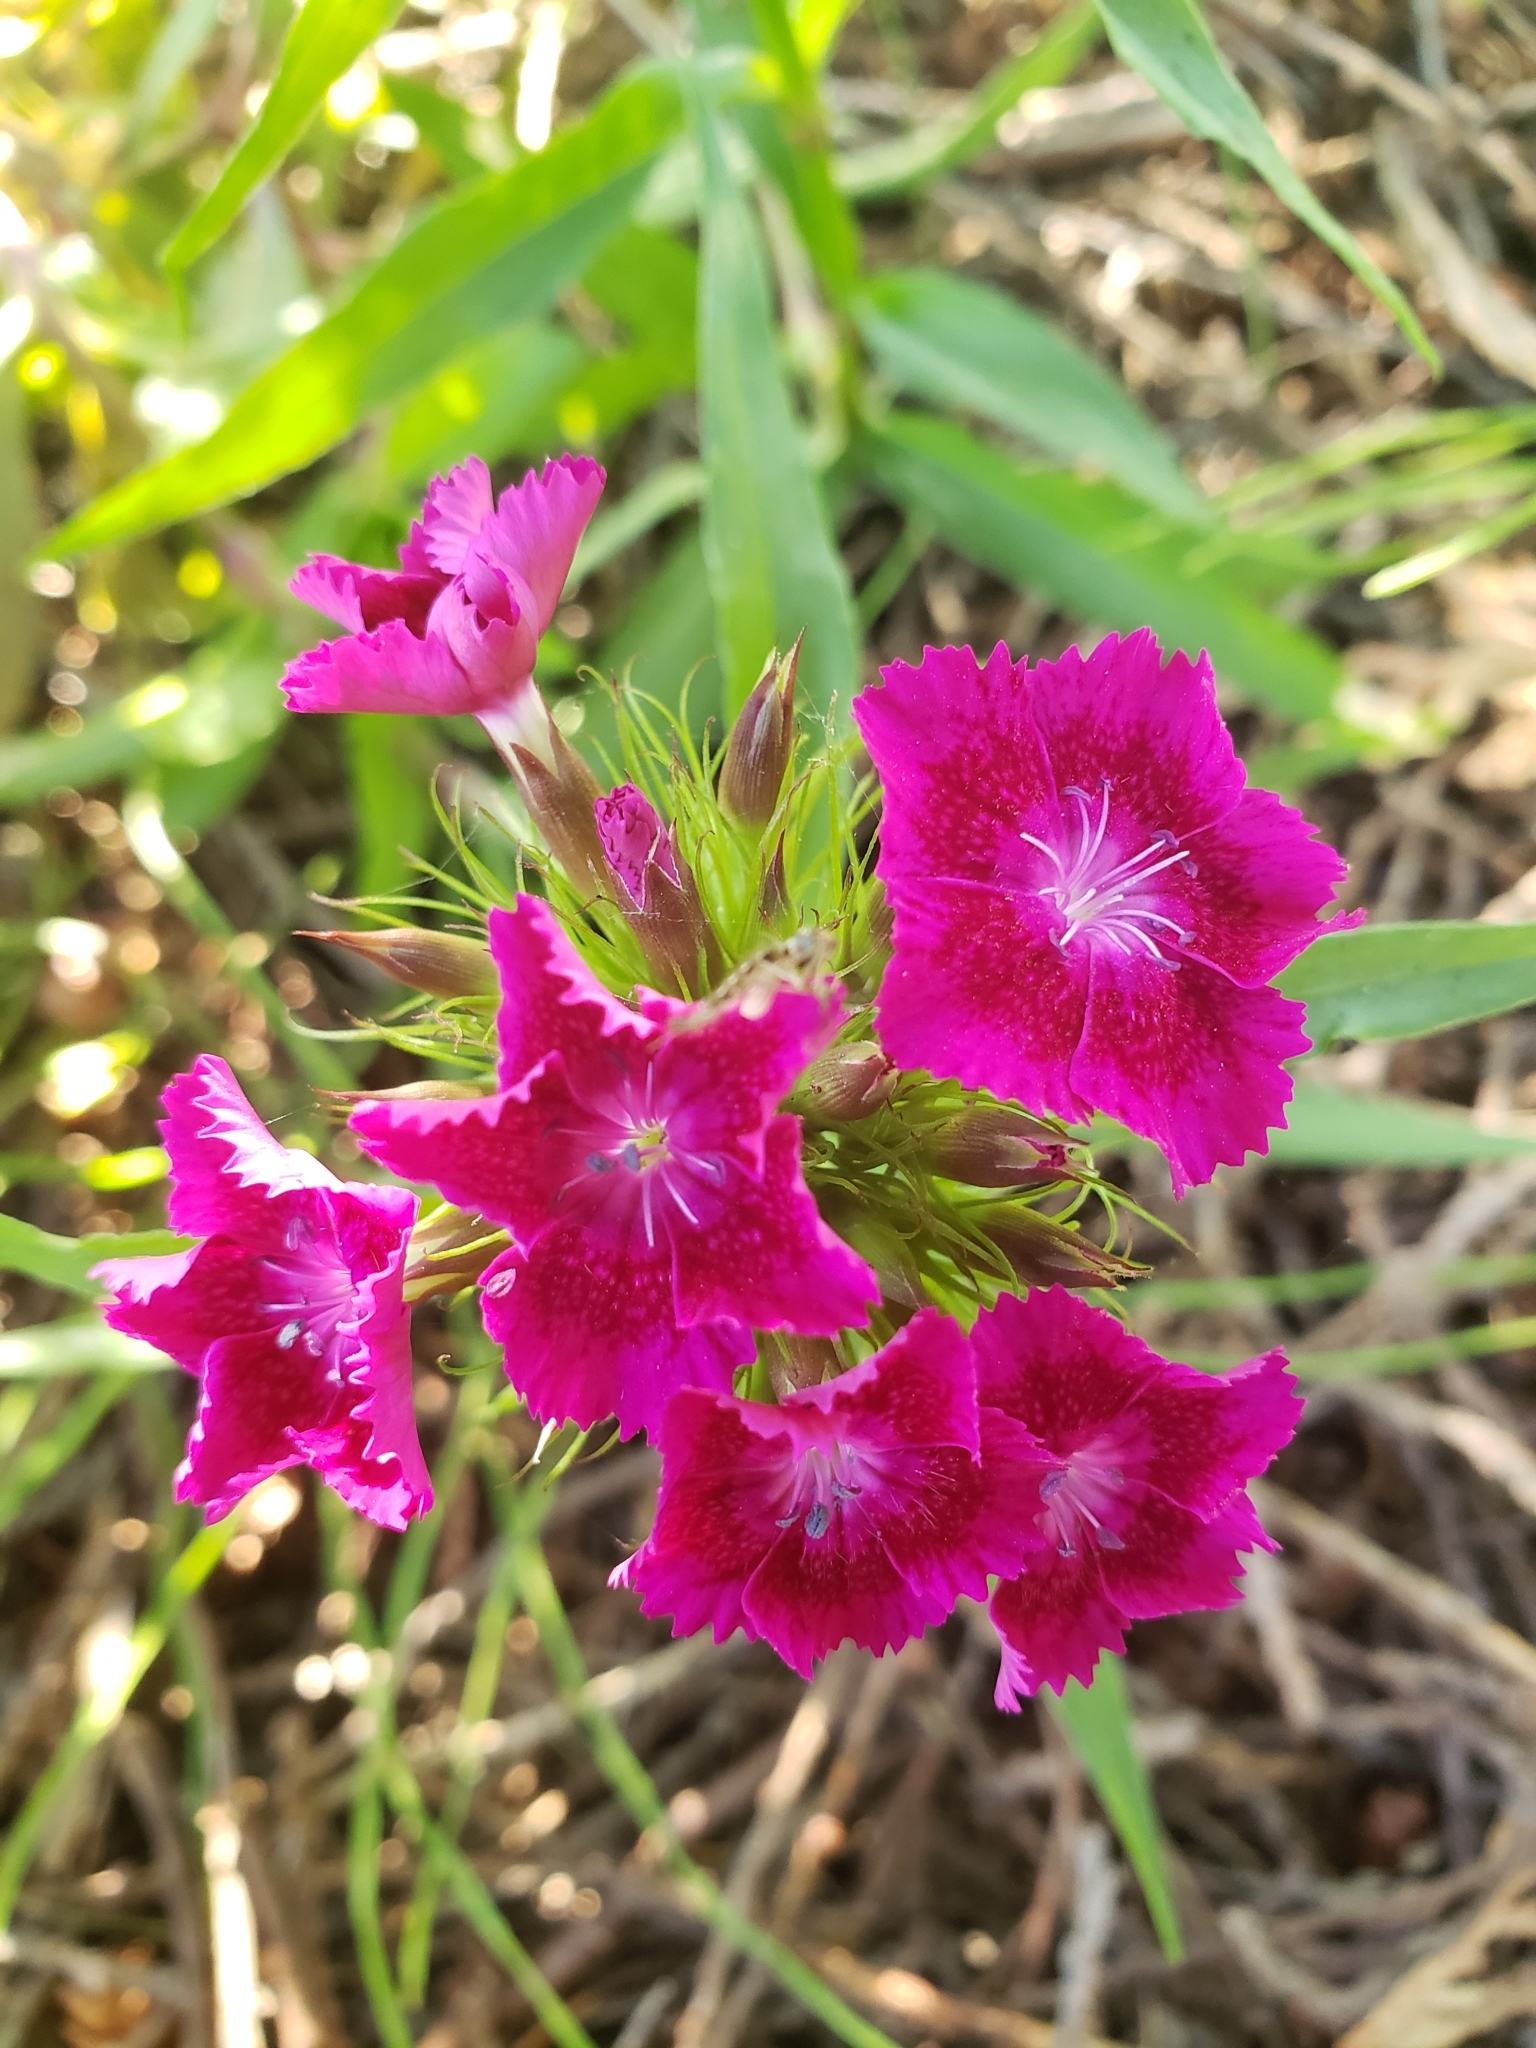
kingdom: Plantae
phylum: Tracheophyta
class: Magnoliopsida
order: Caryophyllales
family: Caryophyllaceae
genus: Dianthus
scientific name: Dianthus barbatus
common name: Sweet-william
